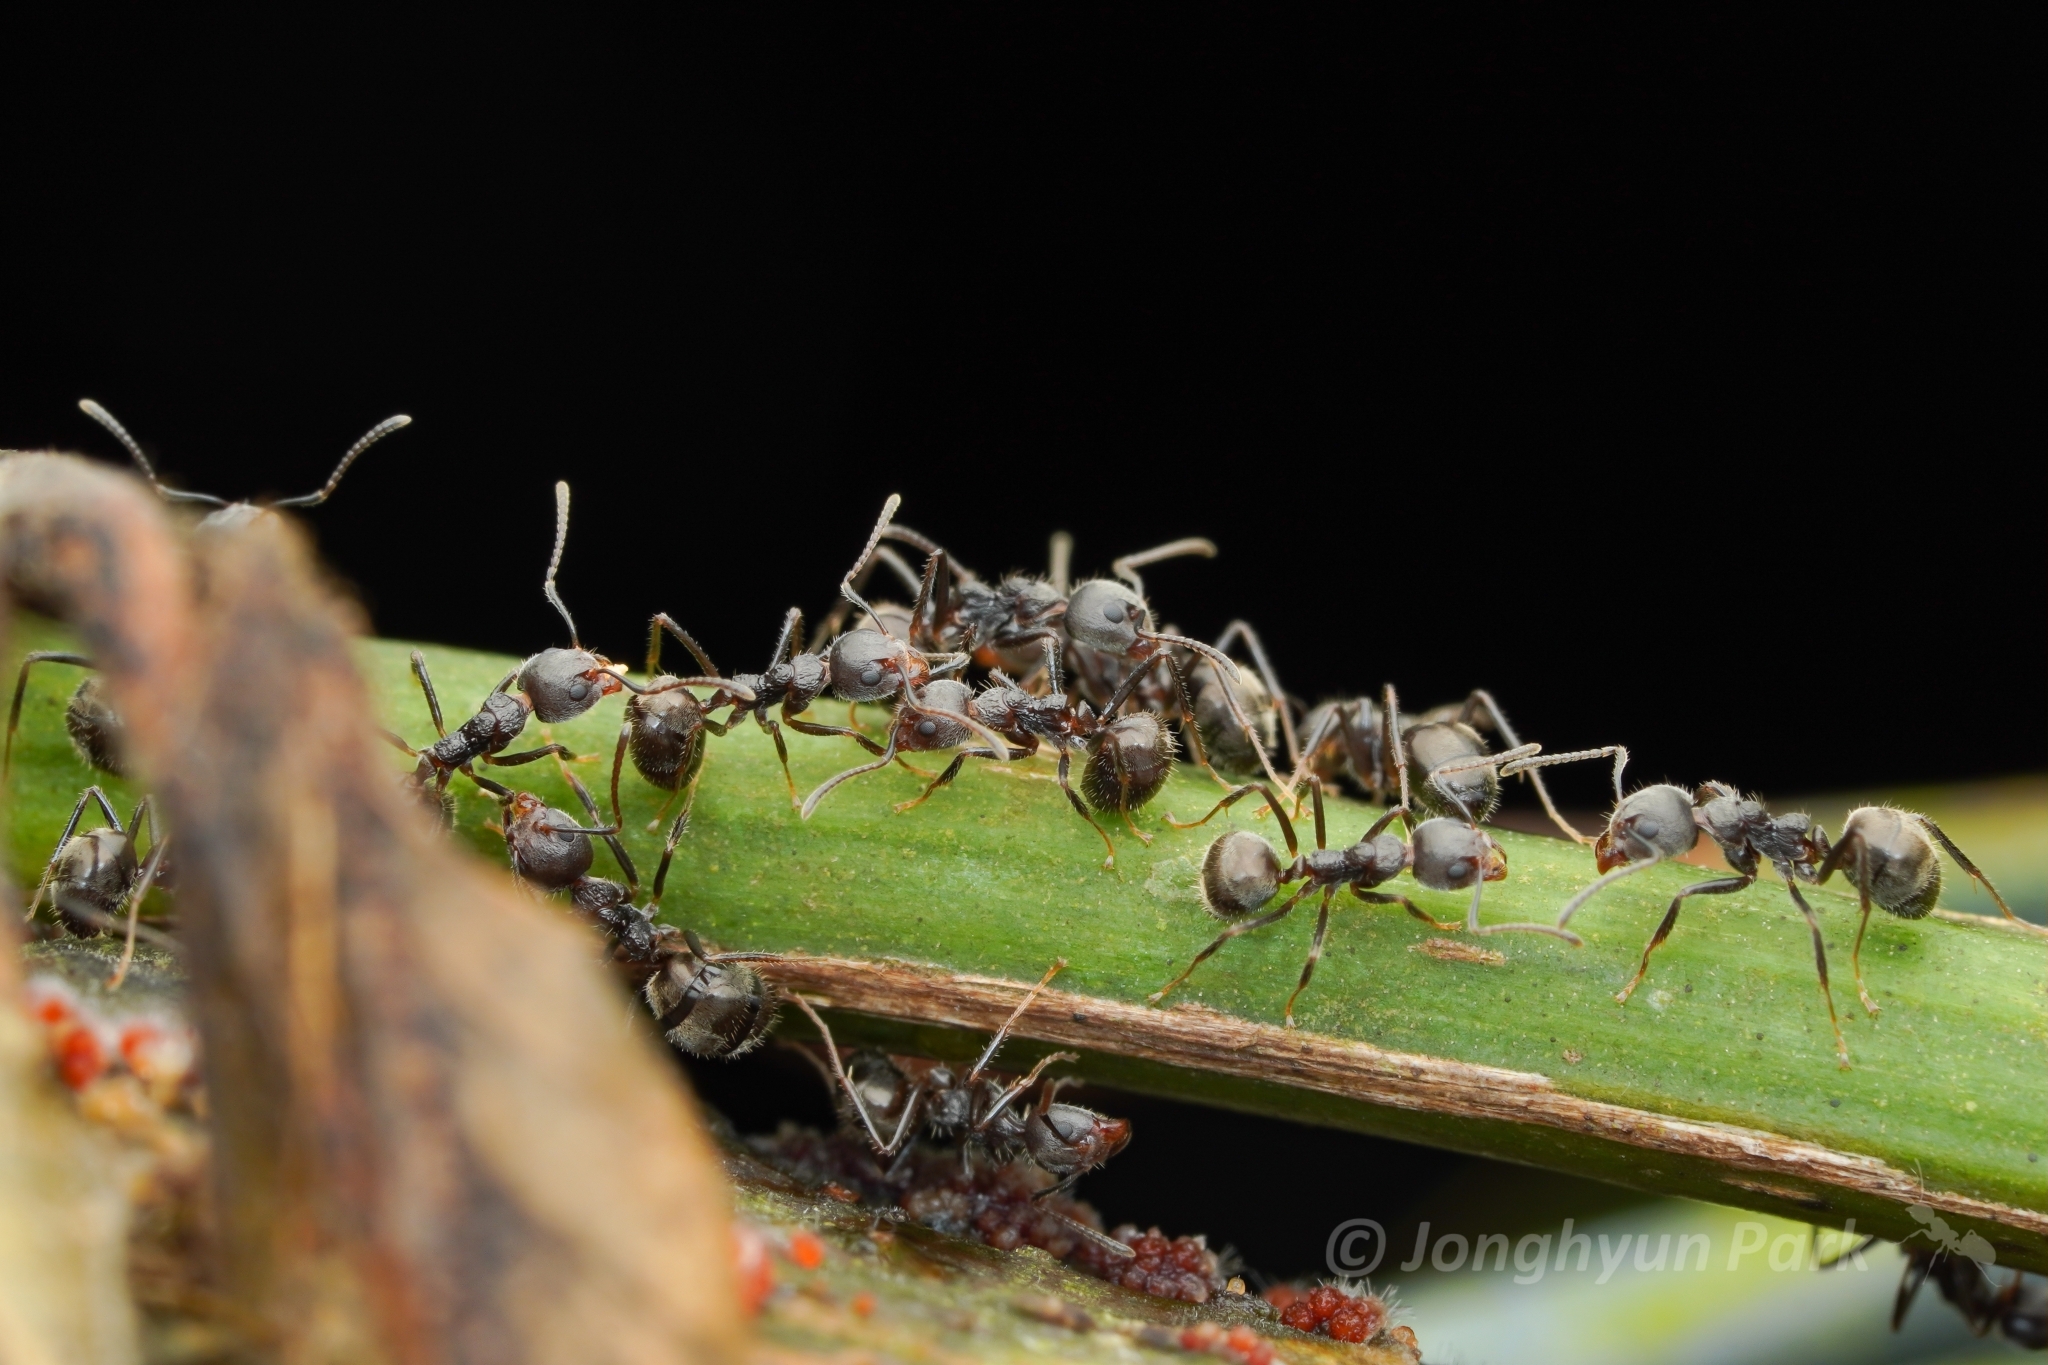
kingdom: Animalia
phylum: Arthropoda
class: Insecta
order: Hymenoptera
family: Formicidae
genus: Dolichoderus
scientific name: Dolichoderus thoracicus
